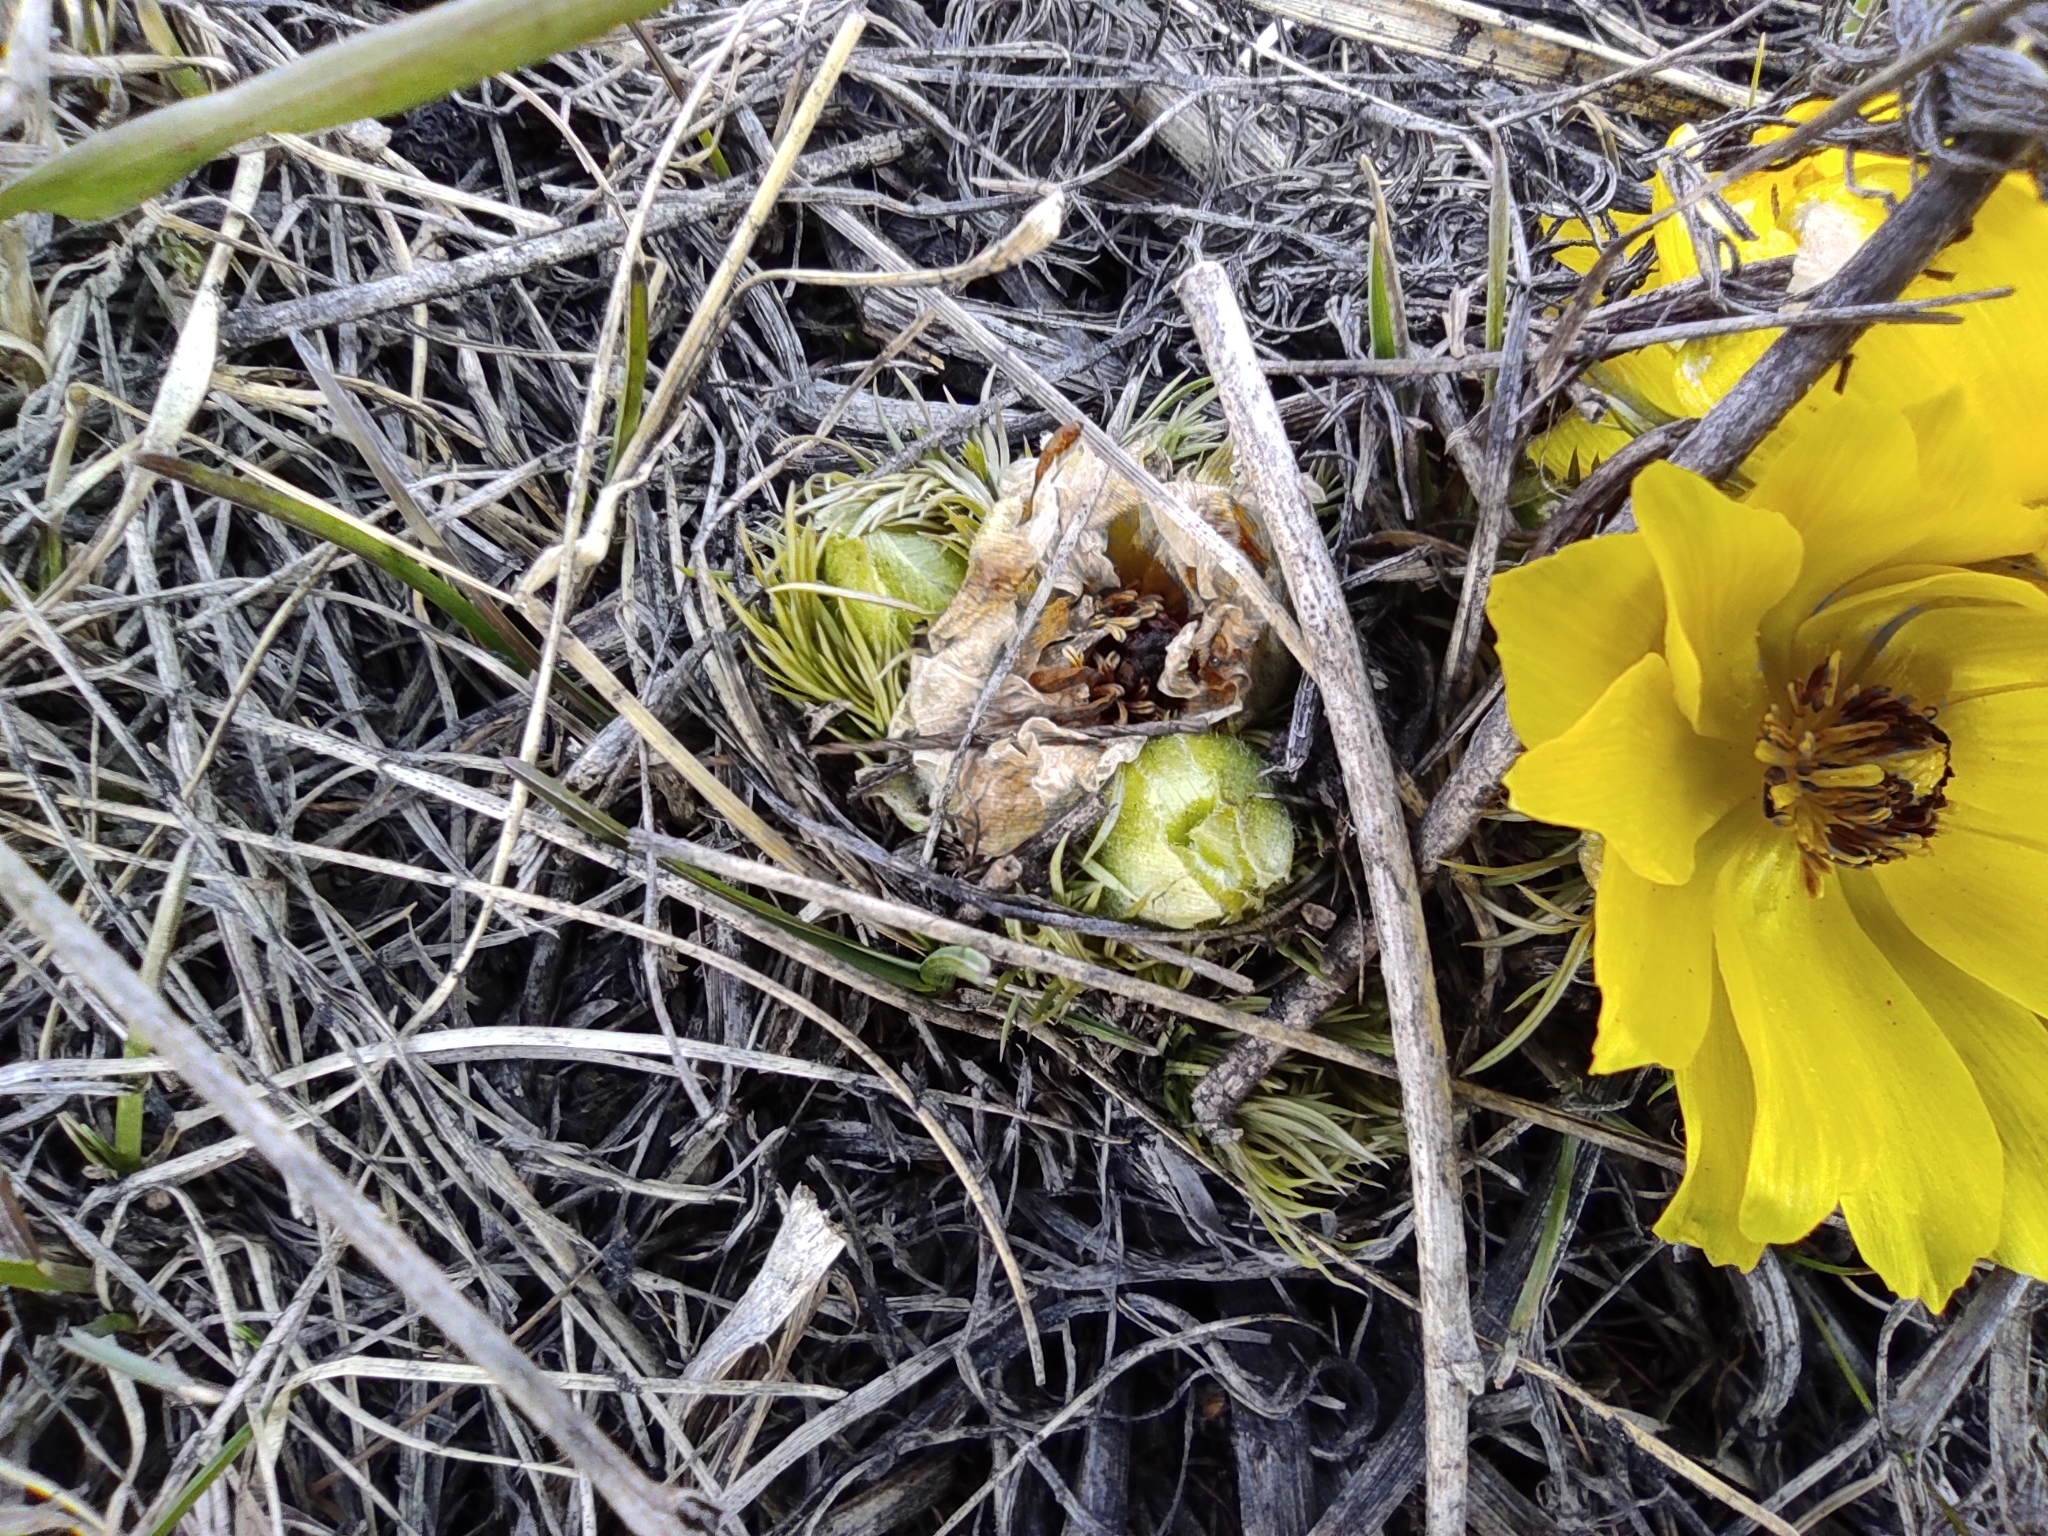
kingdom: Plantae
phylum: Tracheophyta
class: Magnoliopsida
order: Ranunculales
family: Ranunculaceae
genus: Adonis
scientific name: Adonis vernalis
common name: Yellow pheasants-eye
